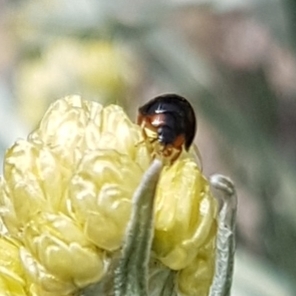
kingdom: Animalia
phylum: Arthropoda
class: Insecta
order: Coleoptera
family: Coccinellidae
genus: Parexochomus
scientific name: Parexochomus nigromaculatus
